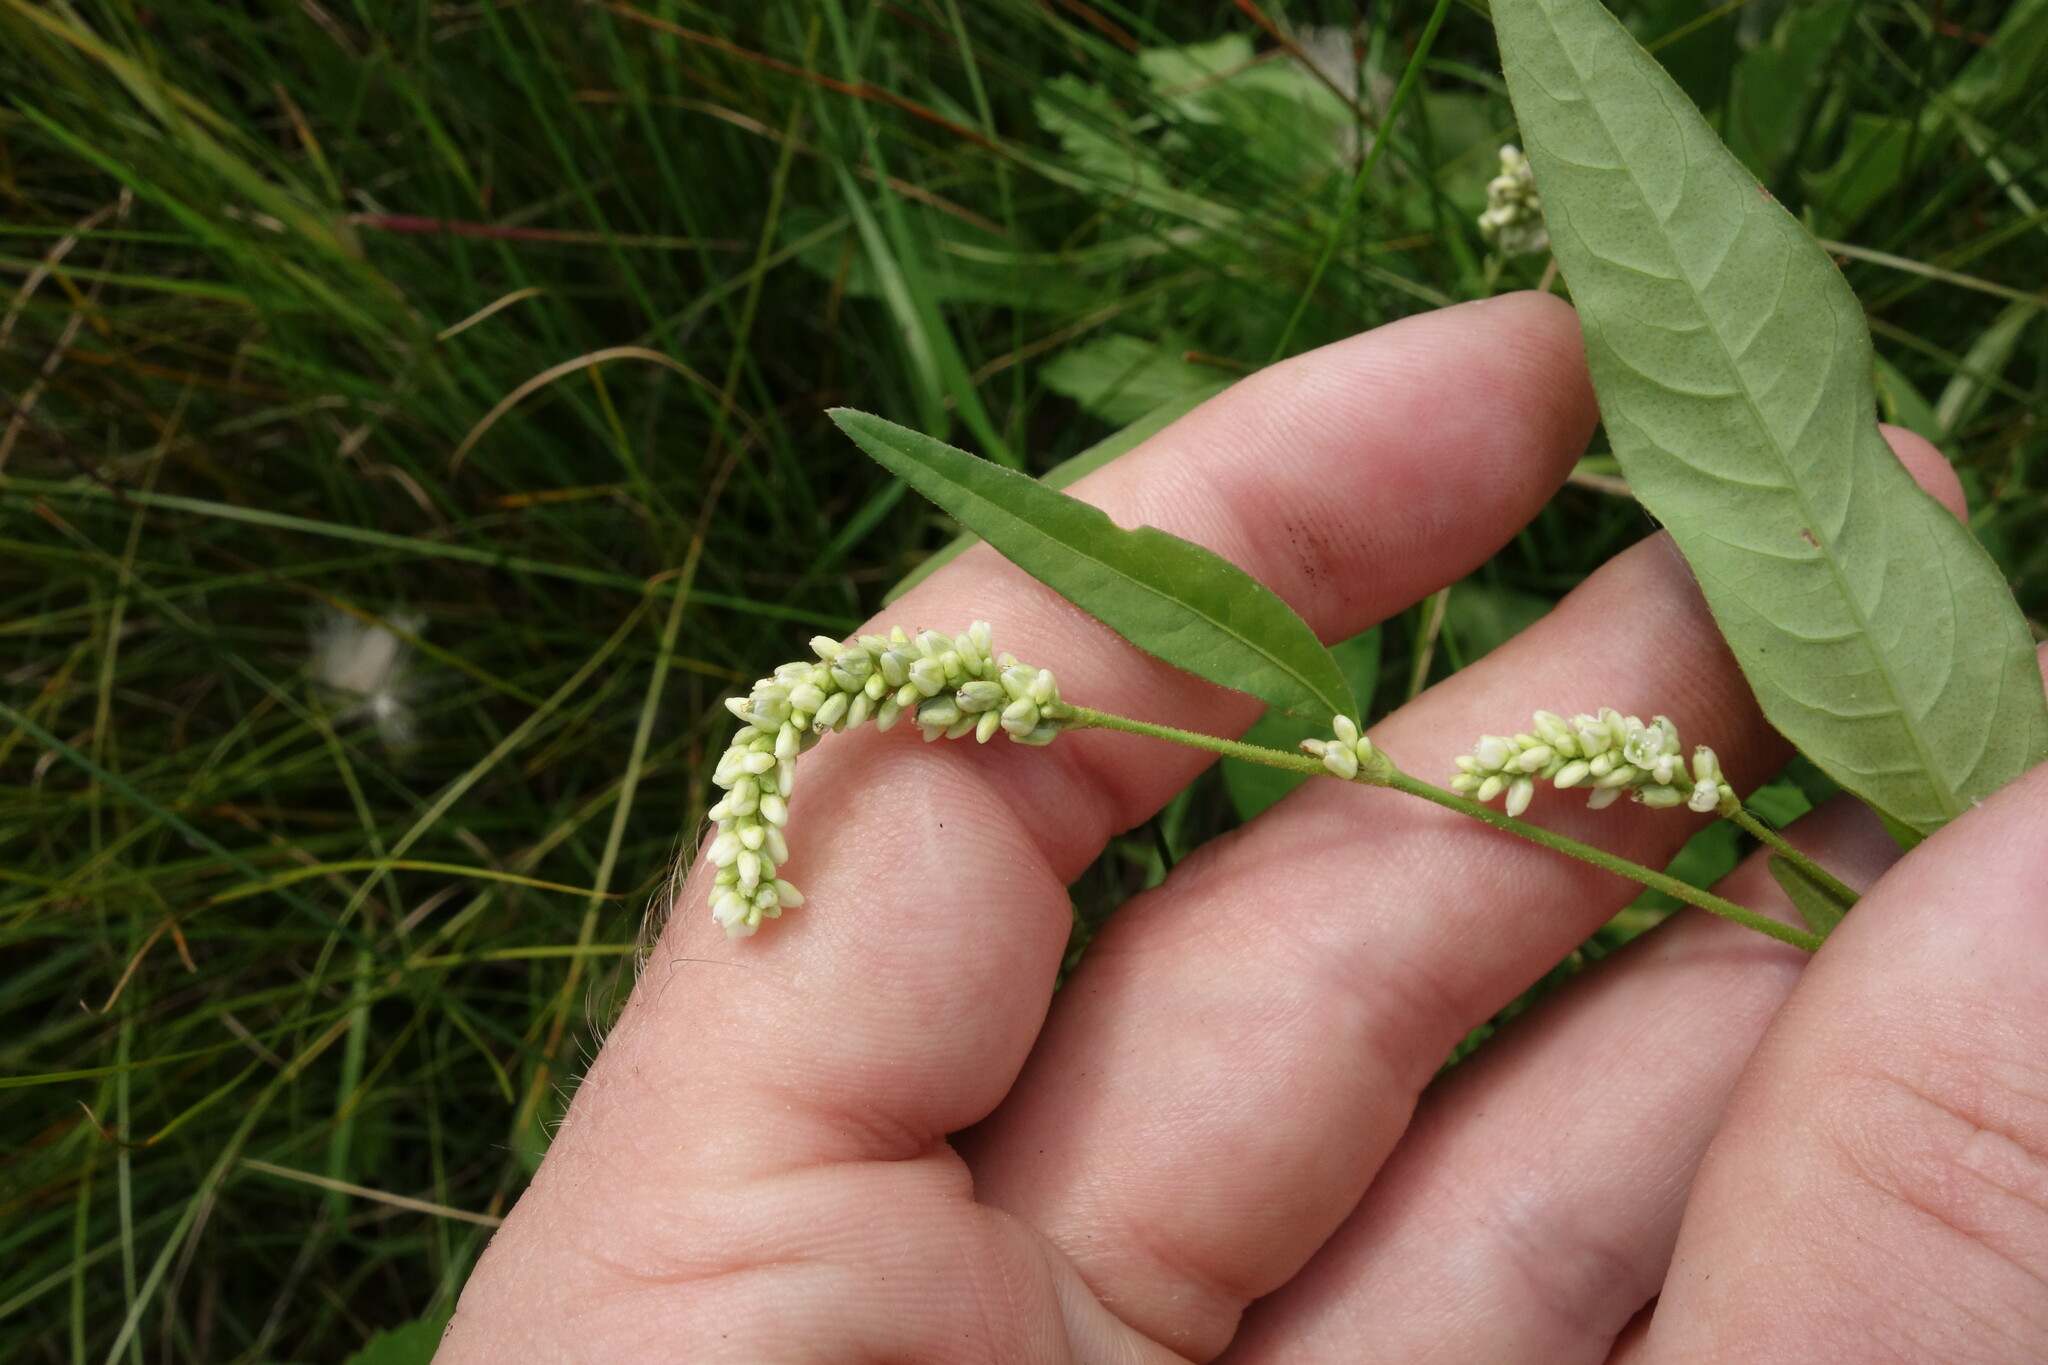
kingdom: Plantae
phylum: Tracheophyta
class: Magnoliopsida
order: Caryophyllales
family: Polygonaceae
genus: Persicaria
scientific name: Persicaria lapathifolia
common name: Curlytop knotweed
